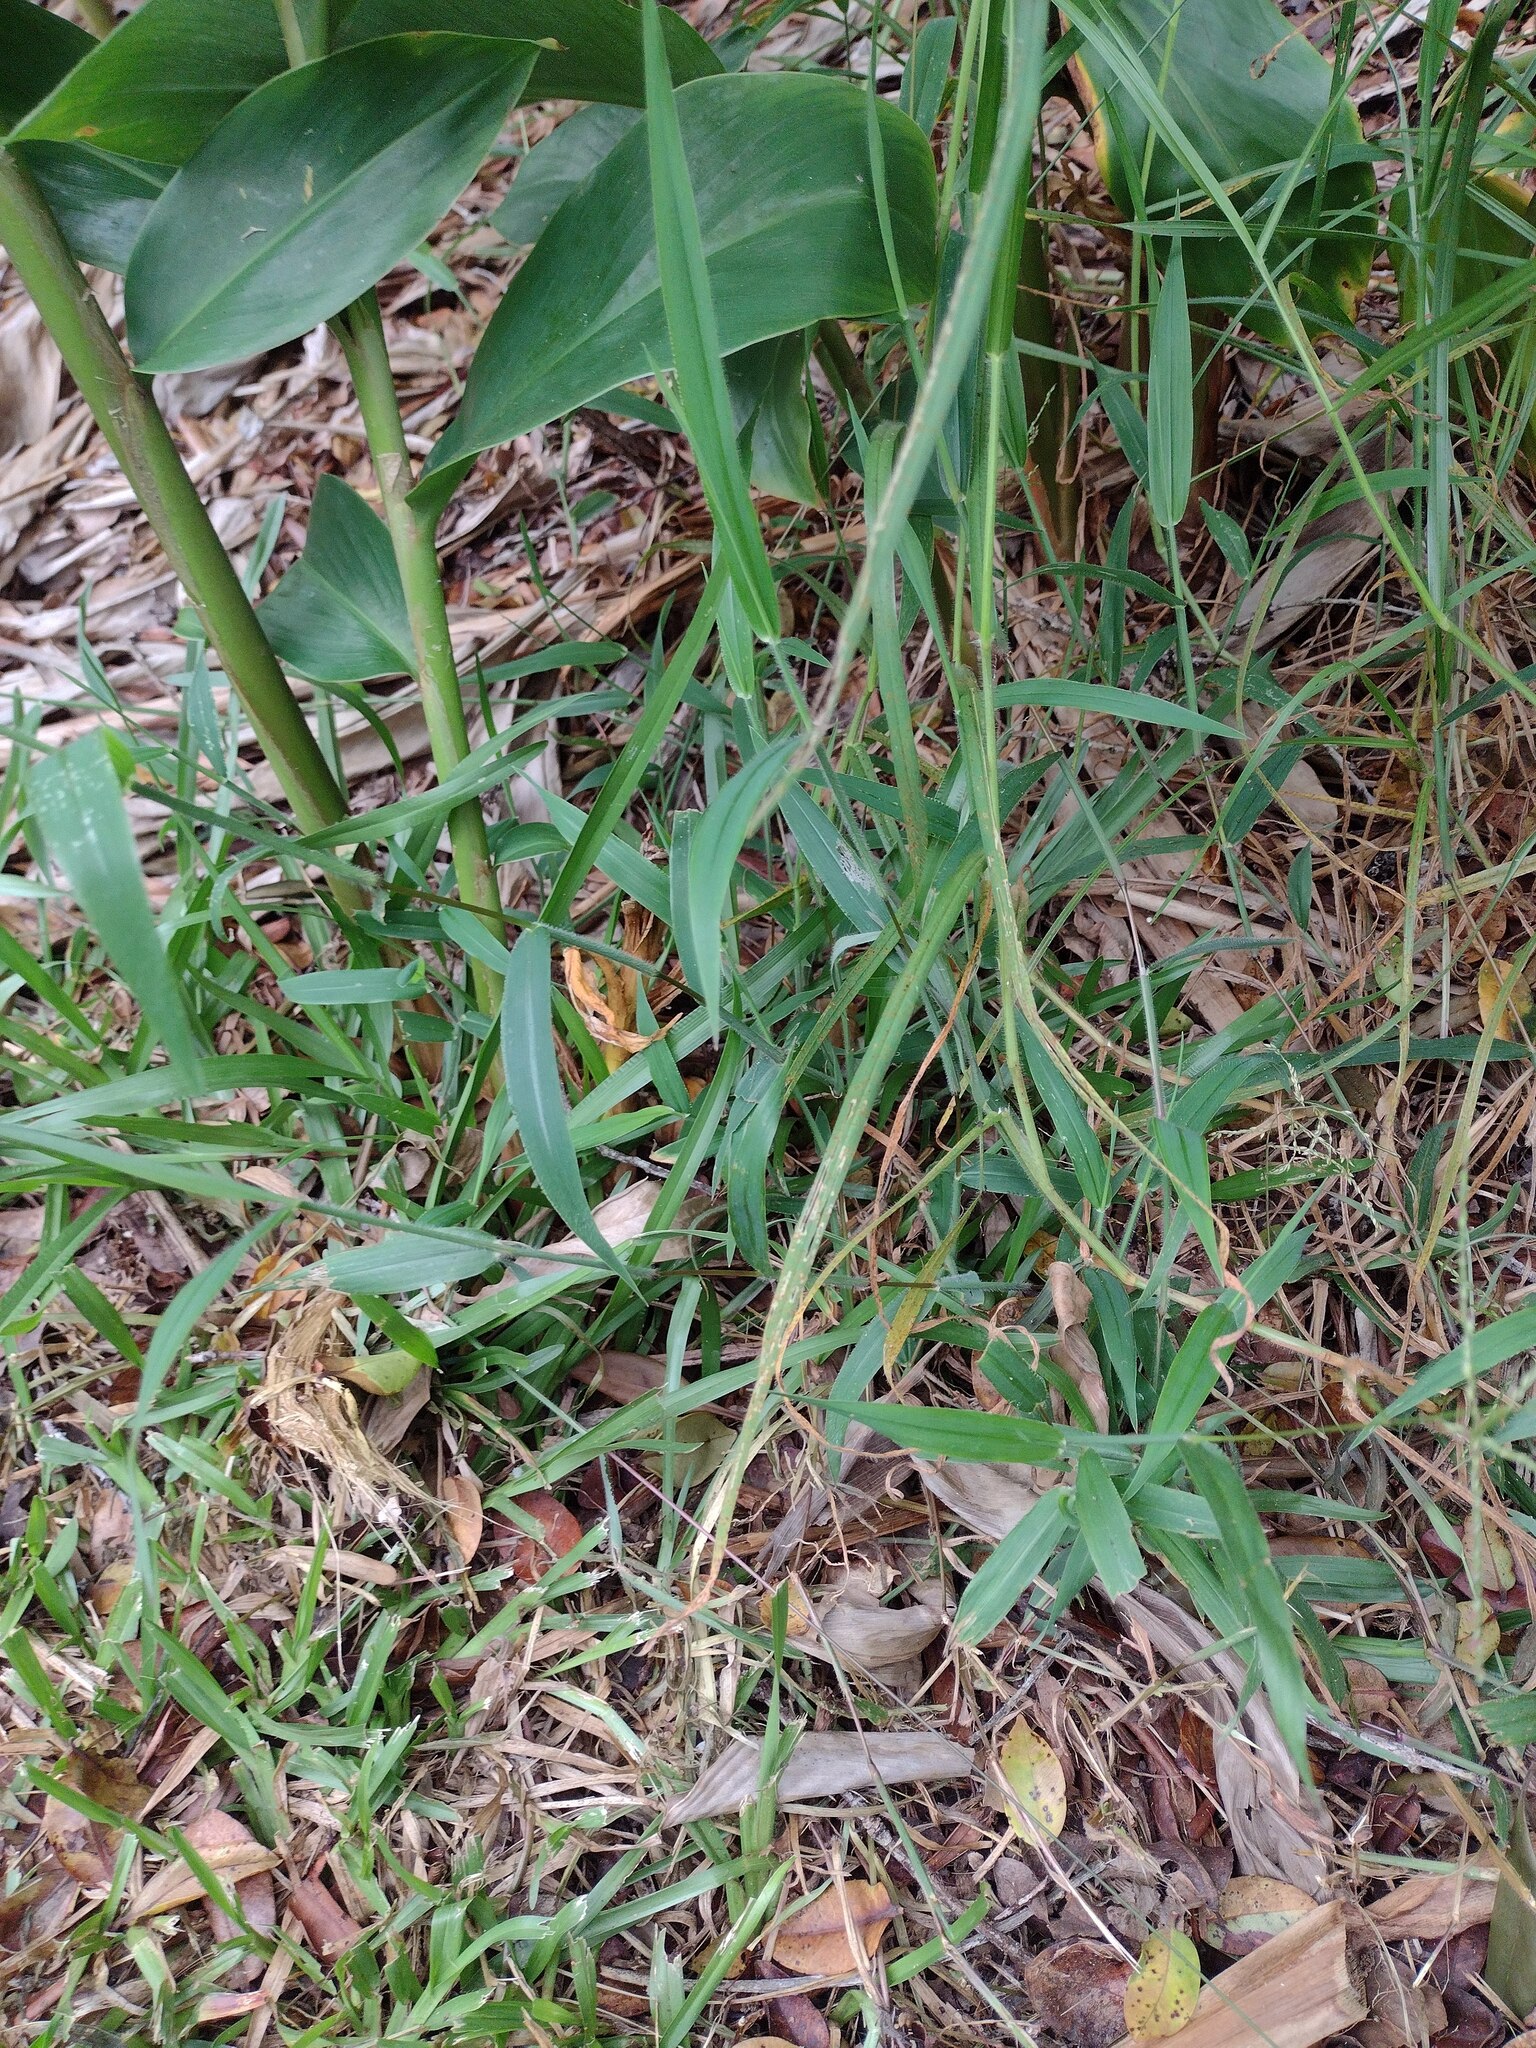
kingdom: Plantae
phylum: Tracheophyta
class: Liliopsida
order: Poales
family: Poaceae
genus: Digitaria
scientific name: Digitaria abyssinica
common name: African couchgrass
